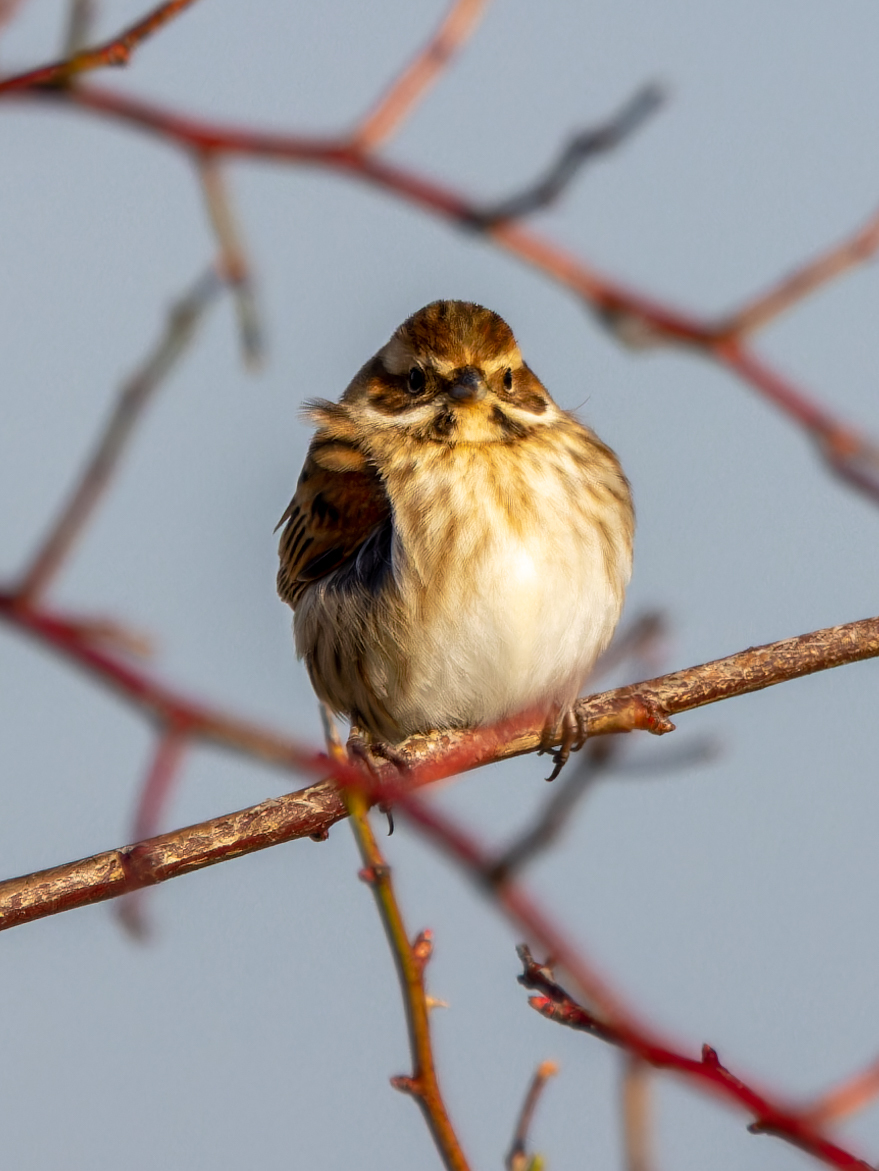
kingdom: Animalia
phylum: Chordata
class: Aves
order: Passeriformes
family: Emberizidae
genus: Emberiza
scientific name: Emberiza schoeniclus
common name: Reed bunting
